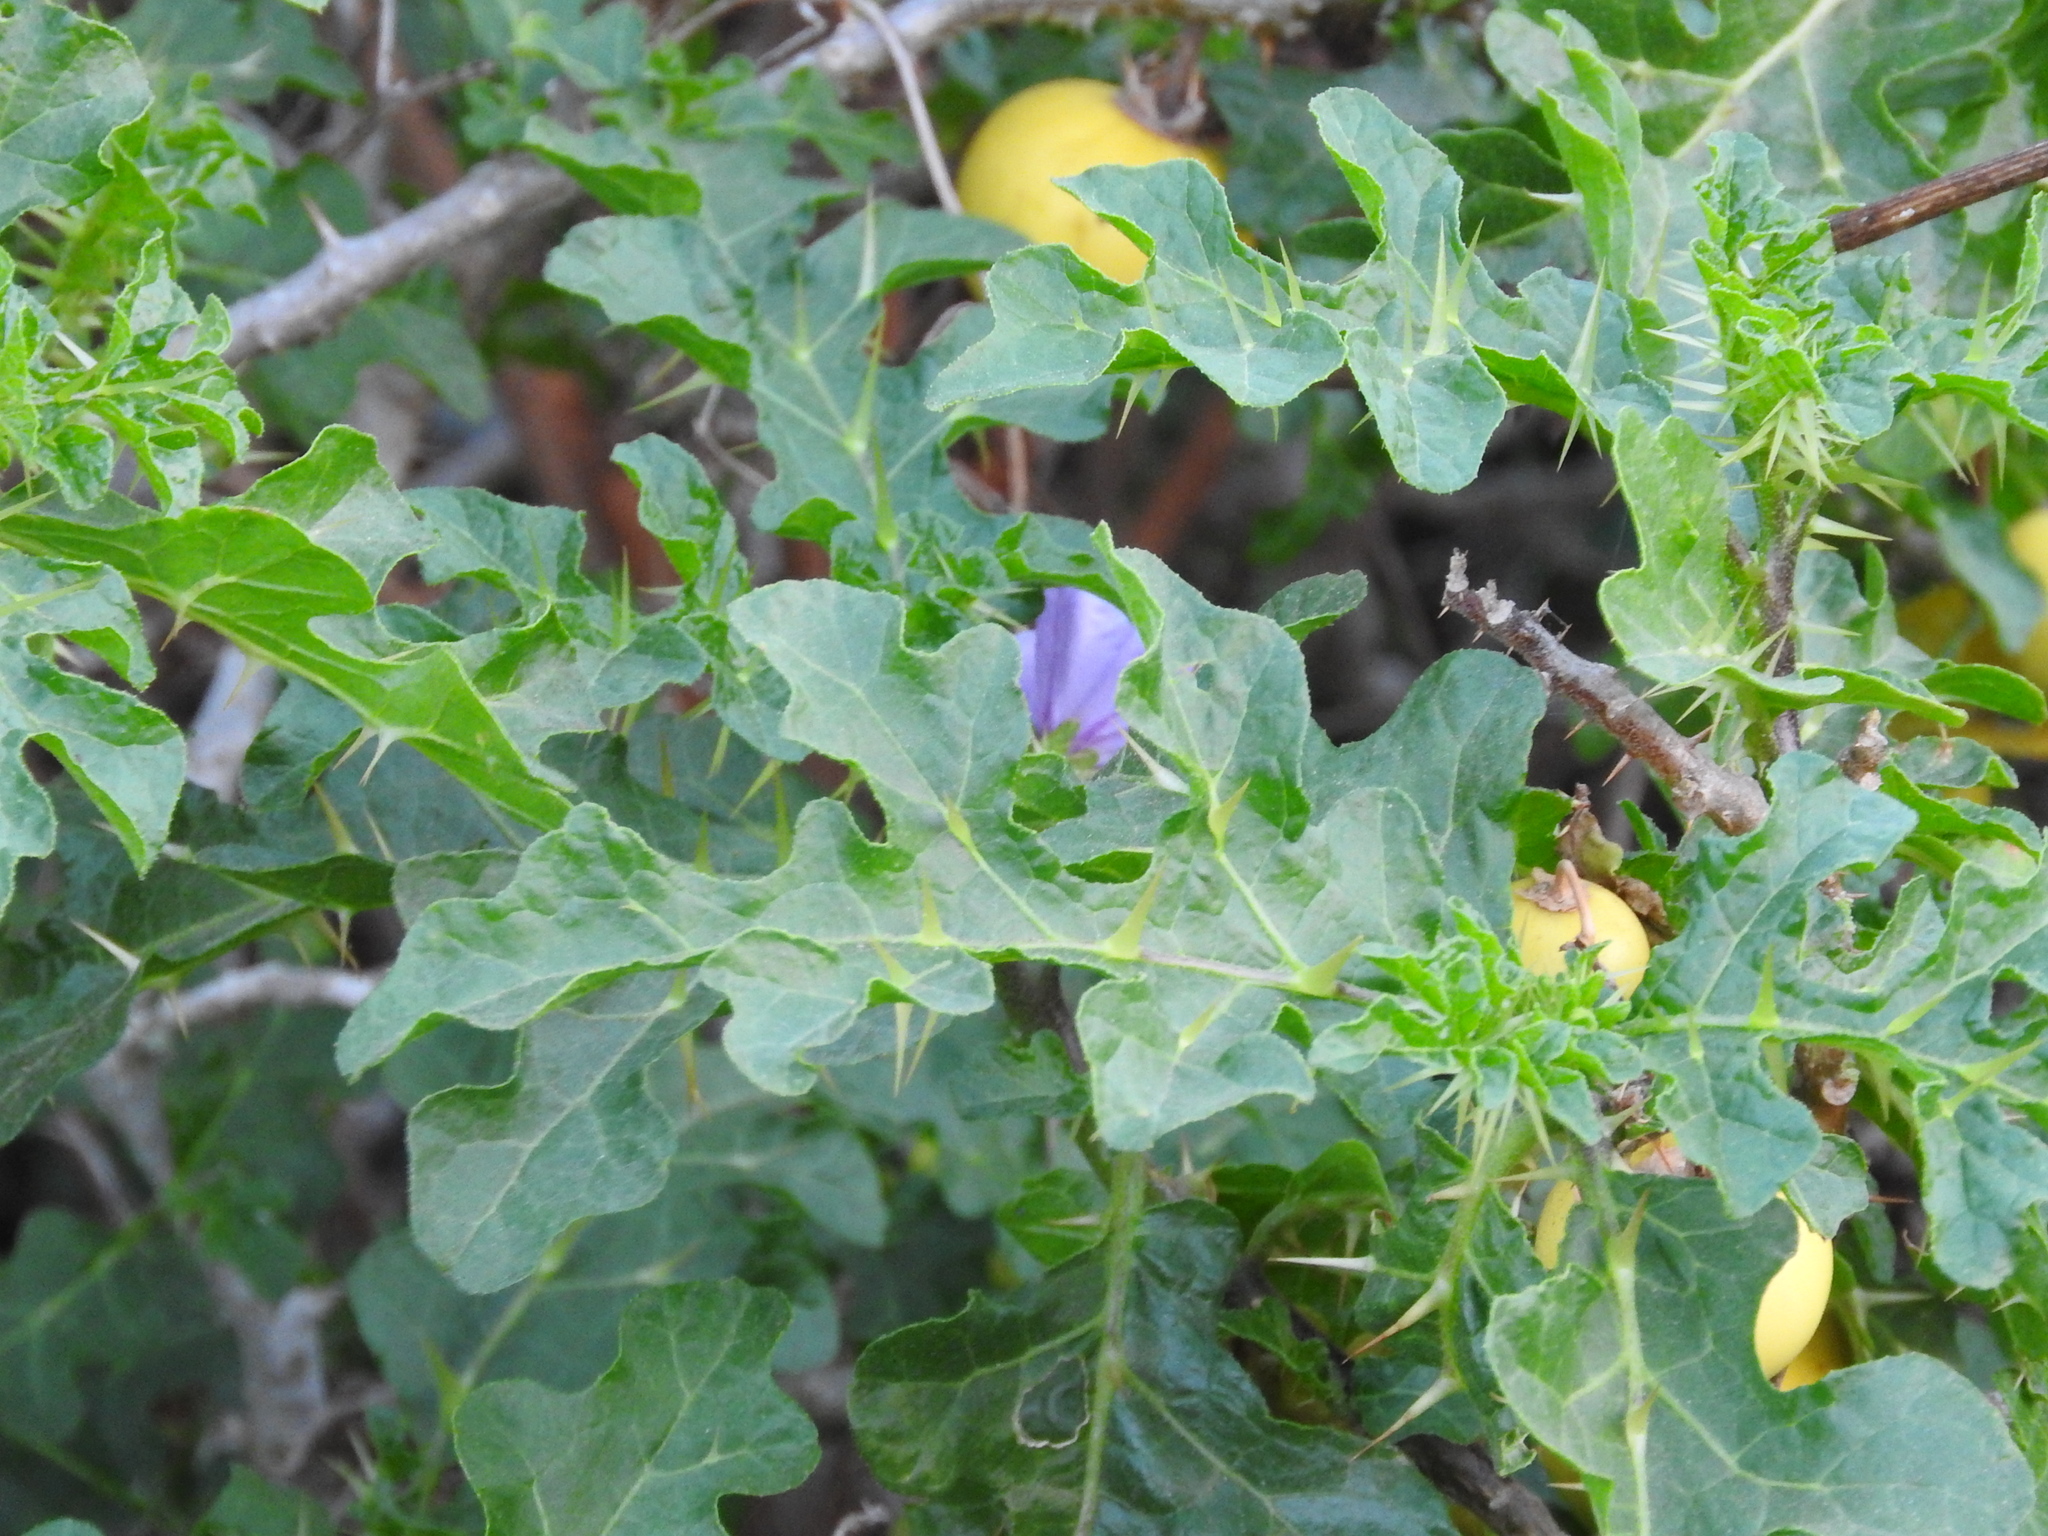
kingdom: Plantae
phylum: Tracheophyta
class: Magnoliopsida
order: Solanales
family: Solanaceae
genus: Solanum
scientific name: Solanum linnaeanum
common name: Nightshade
